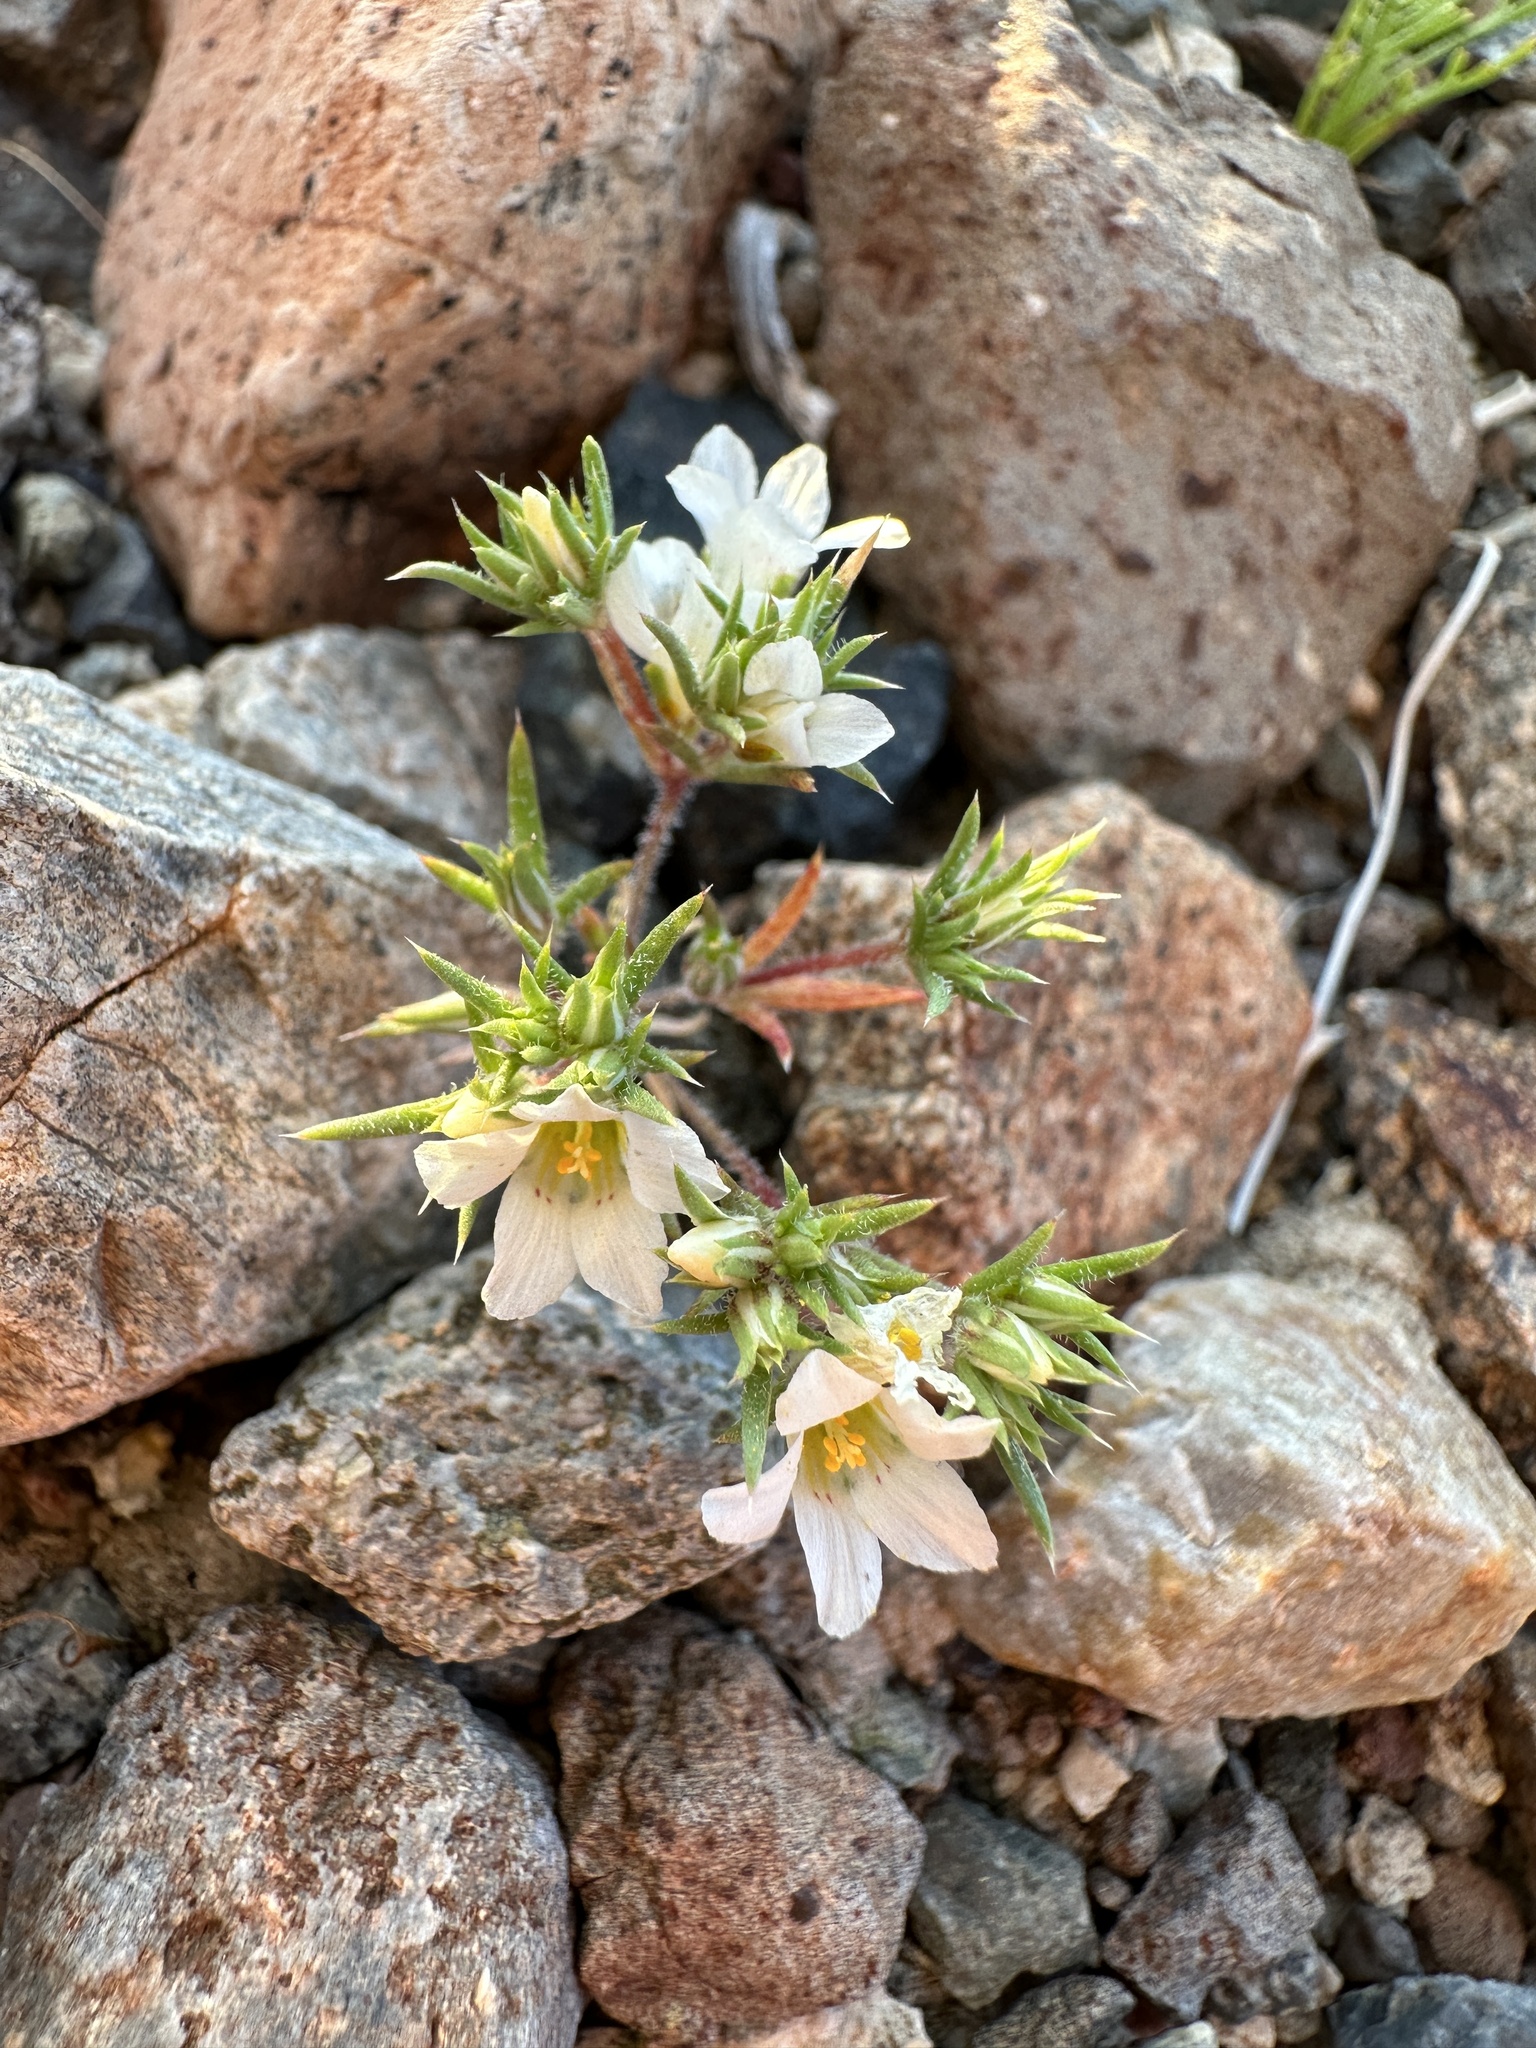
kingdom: Plantae
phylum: Tracheophyta
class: Magnoliopsida
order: Ericales
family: Polemoniaceae
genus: Linanthus
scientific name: Linanthus demissus
